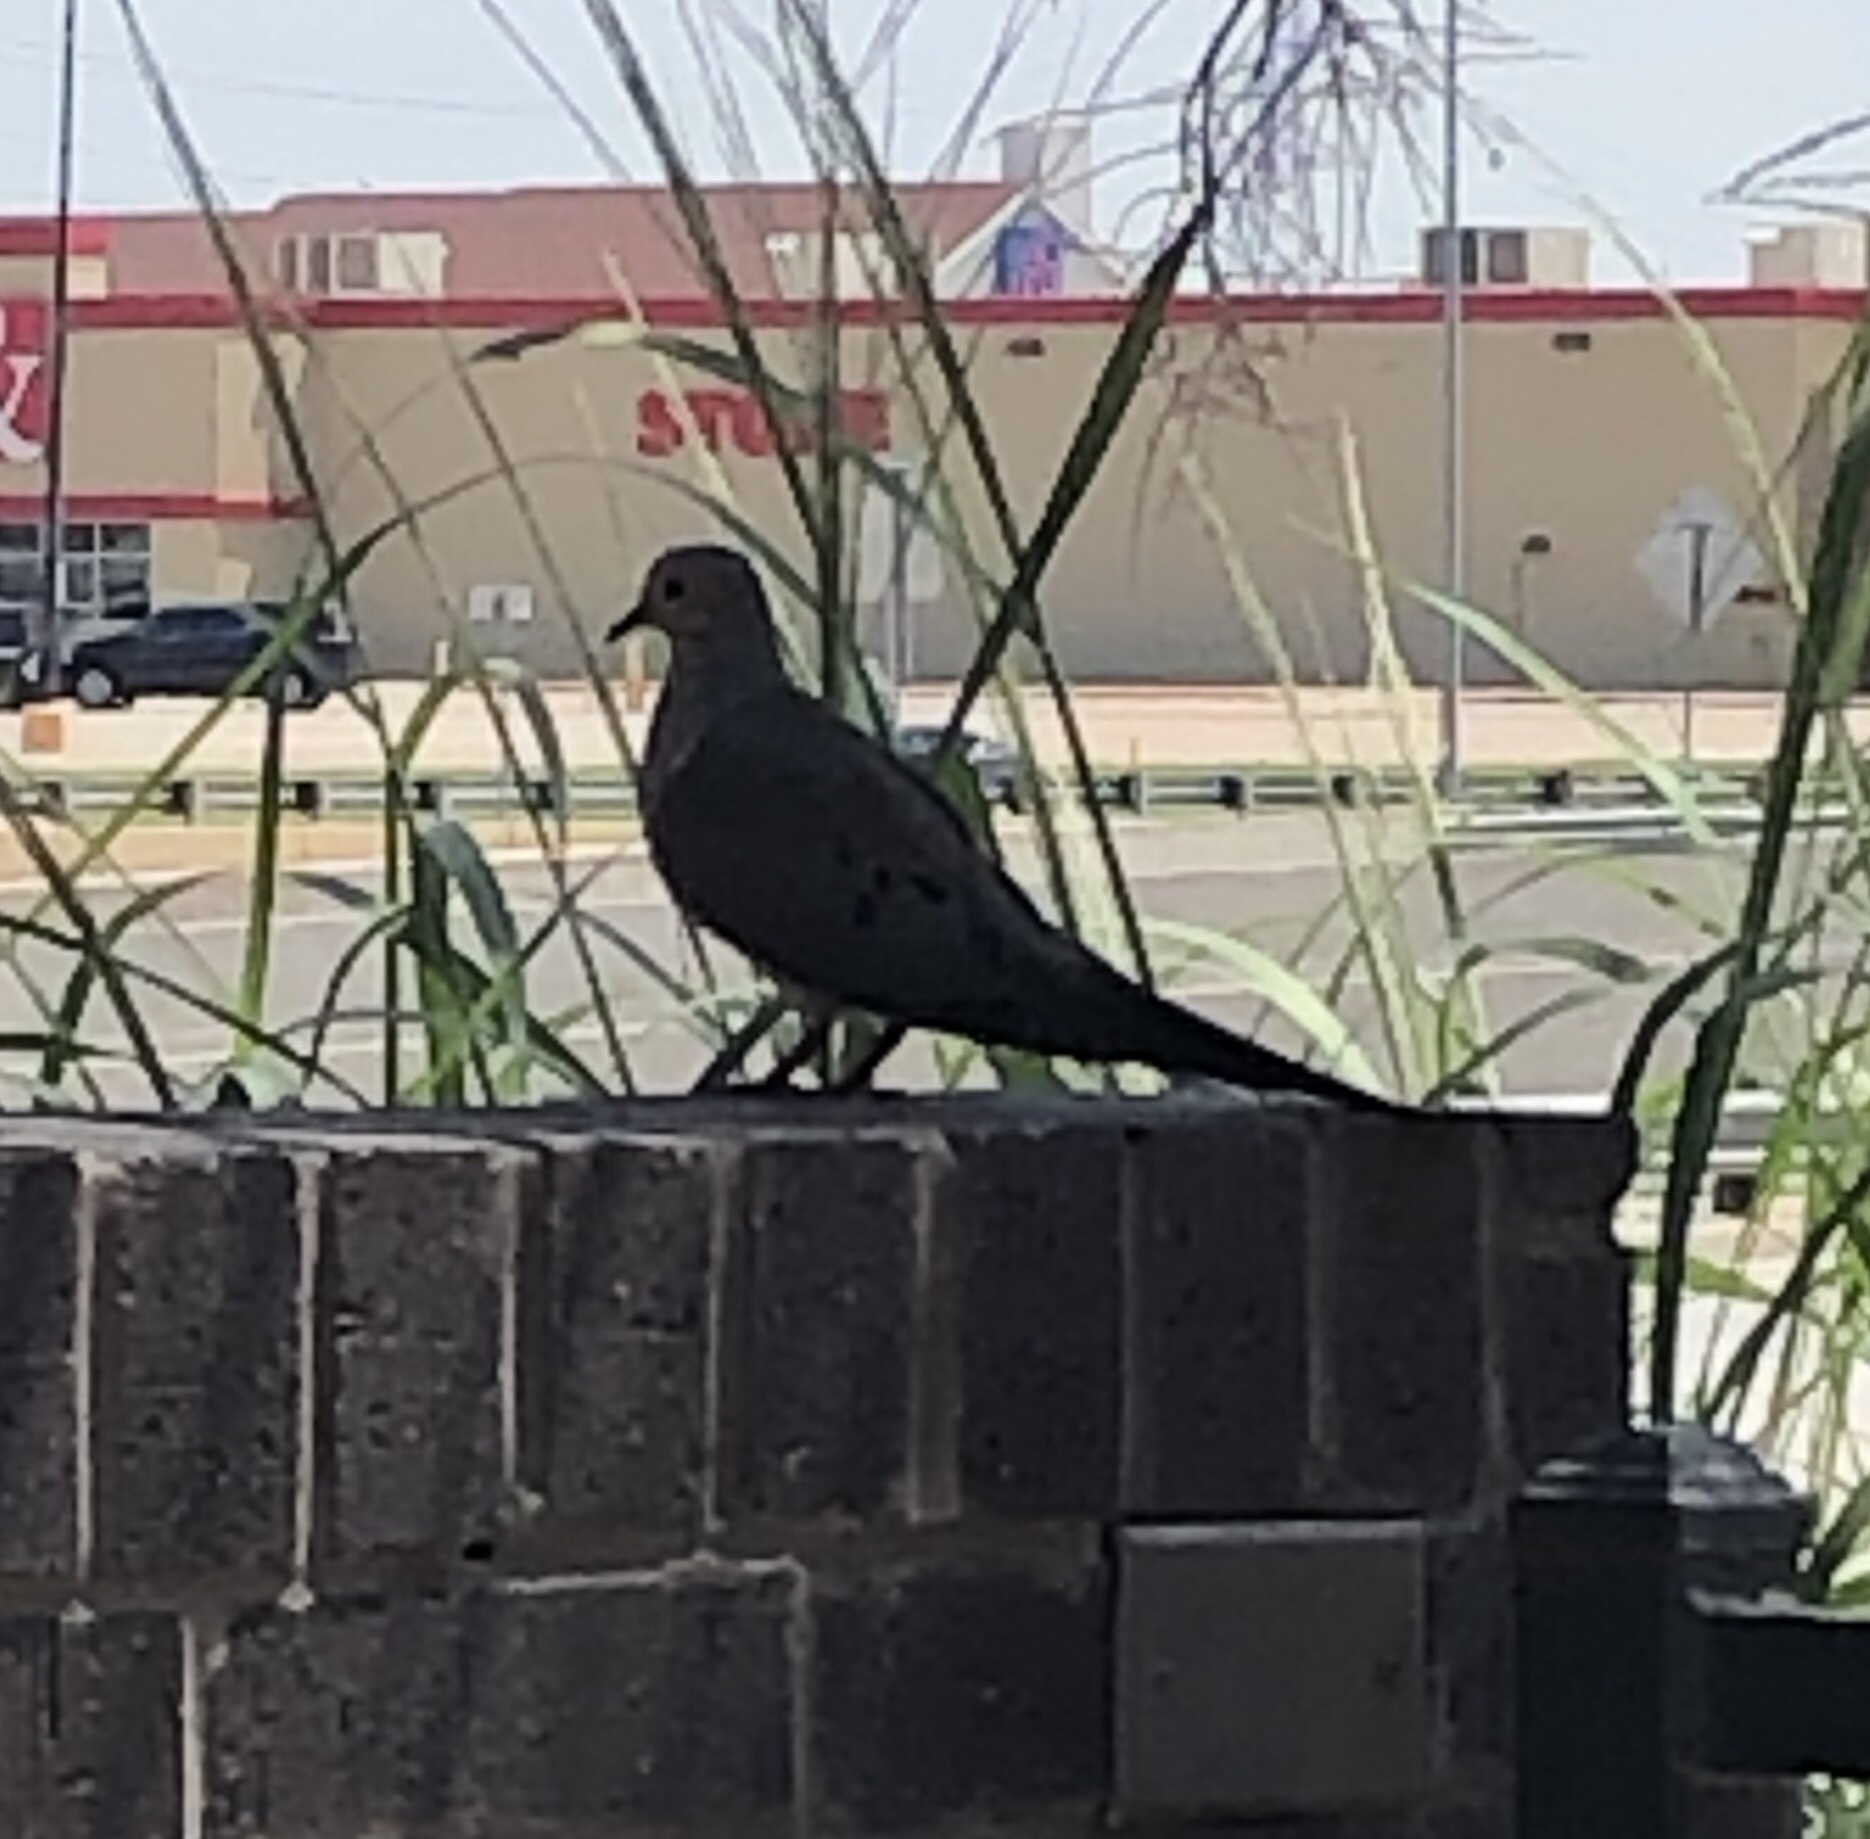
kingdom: Animalia
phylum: Chordata
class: Aves
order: Columbiformes
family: Columbidae
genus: Zenaida
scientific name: Zenaida macroura
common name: Mourning dove
